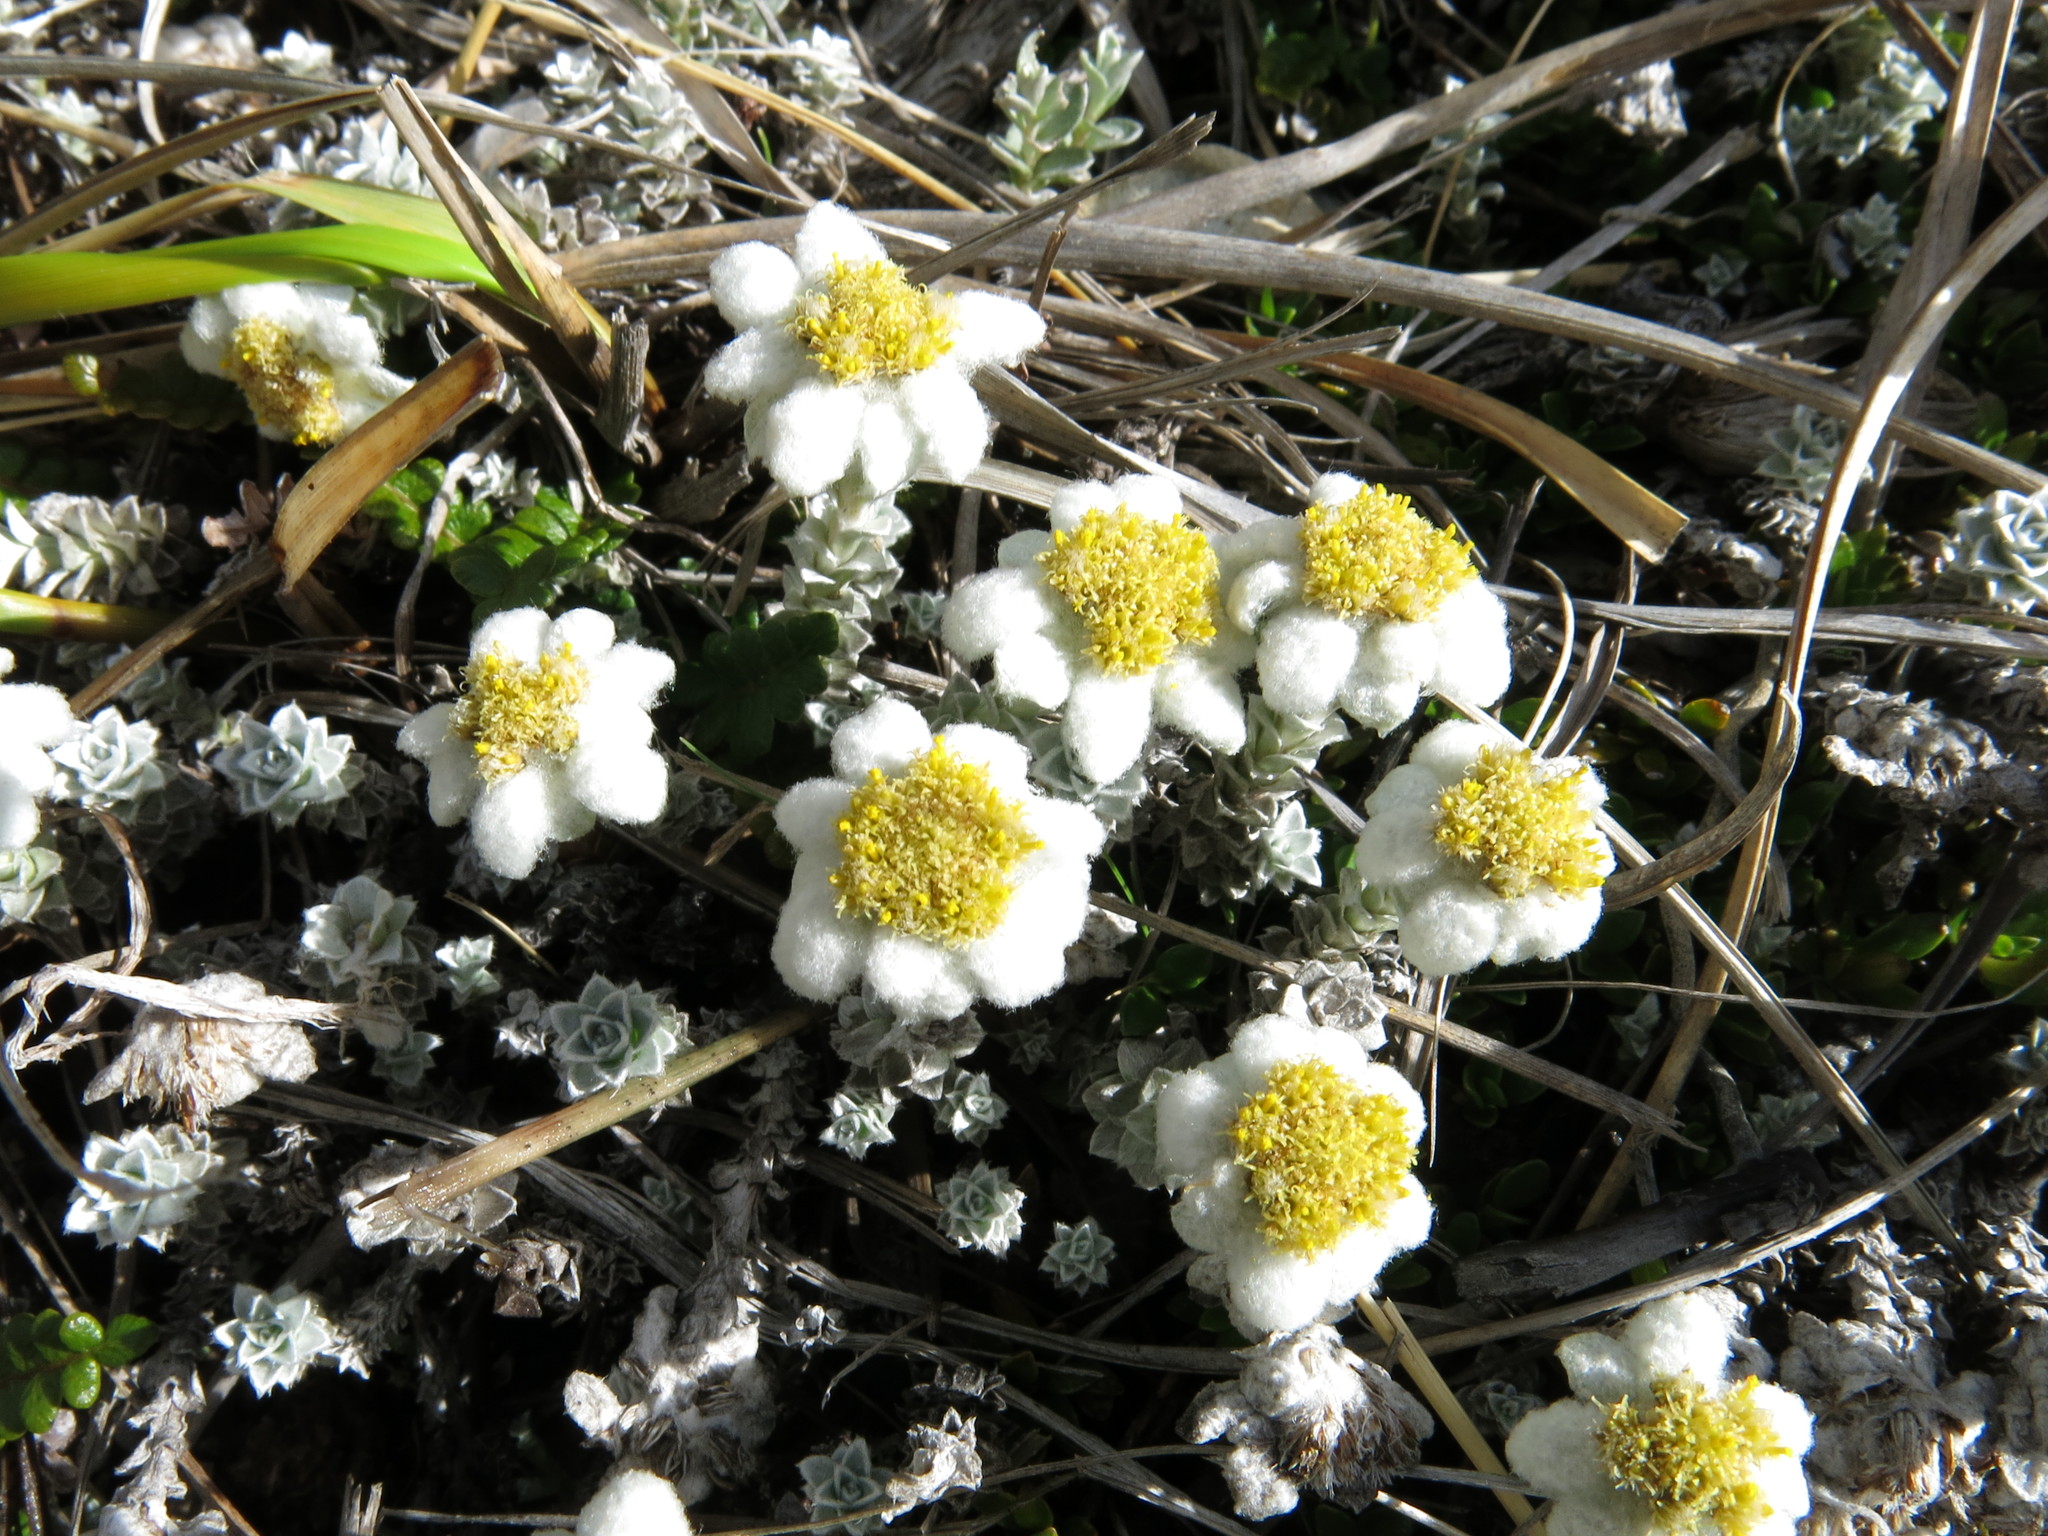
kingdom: Plantae
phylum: Tracheophyta
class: Magnoliopsida
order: Asterales
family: Asteraceae
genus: Leucogenes
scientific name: Leucogenes grandiceps
